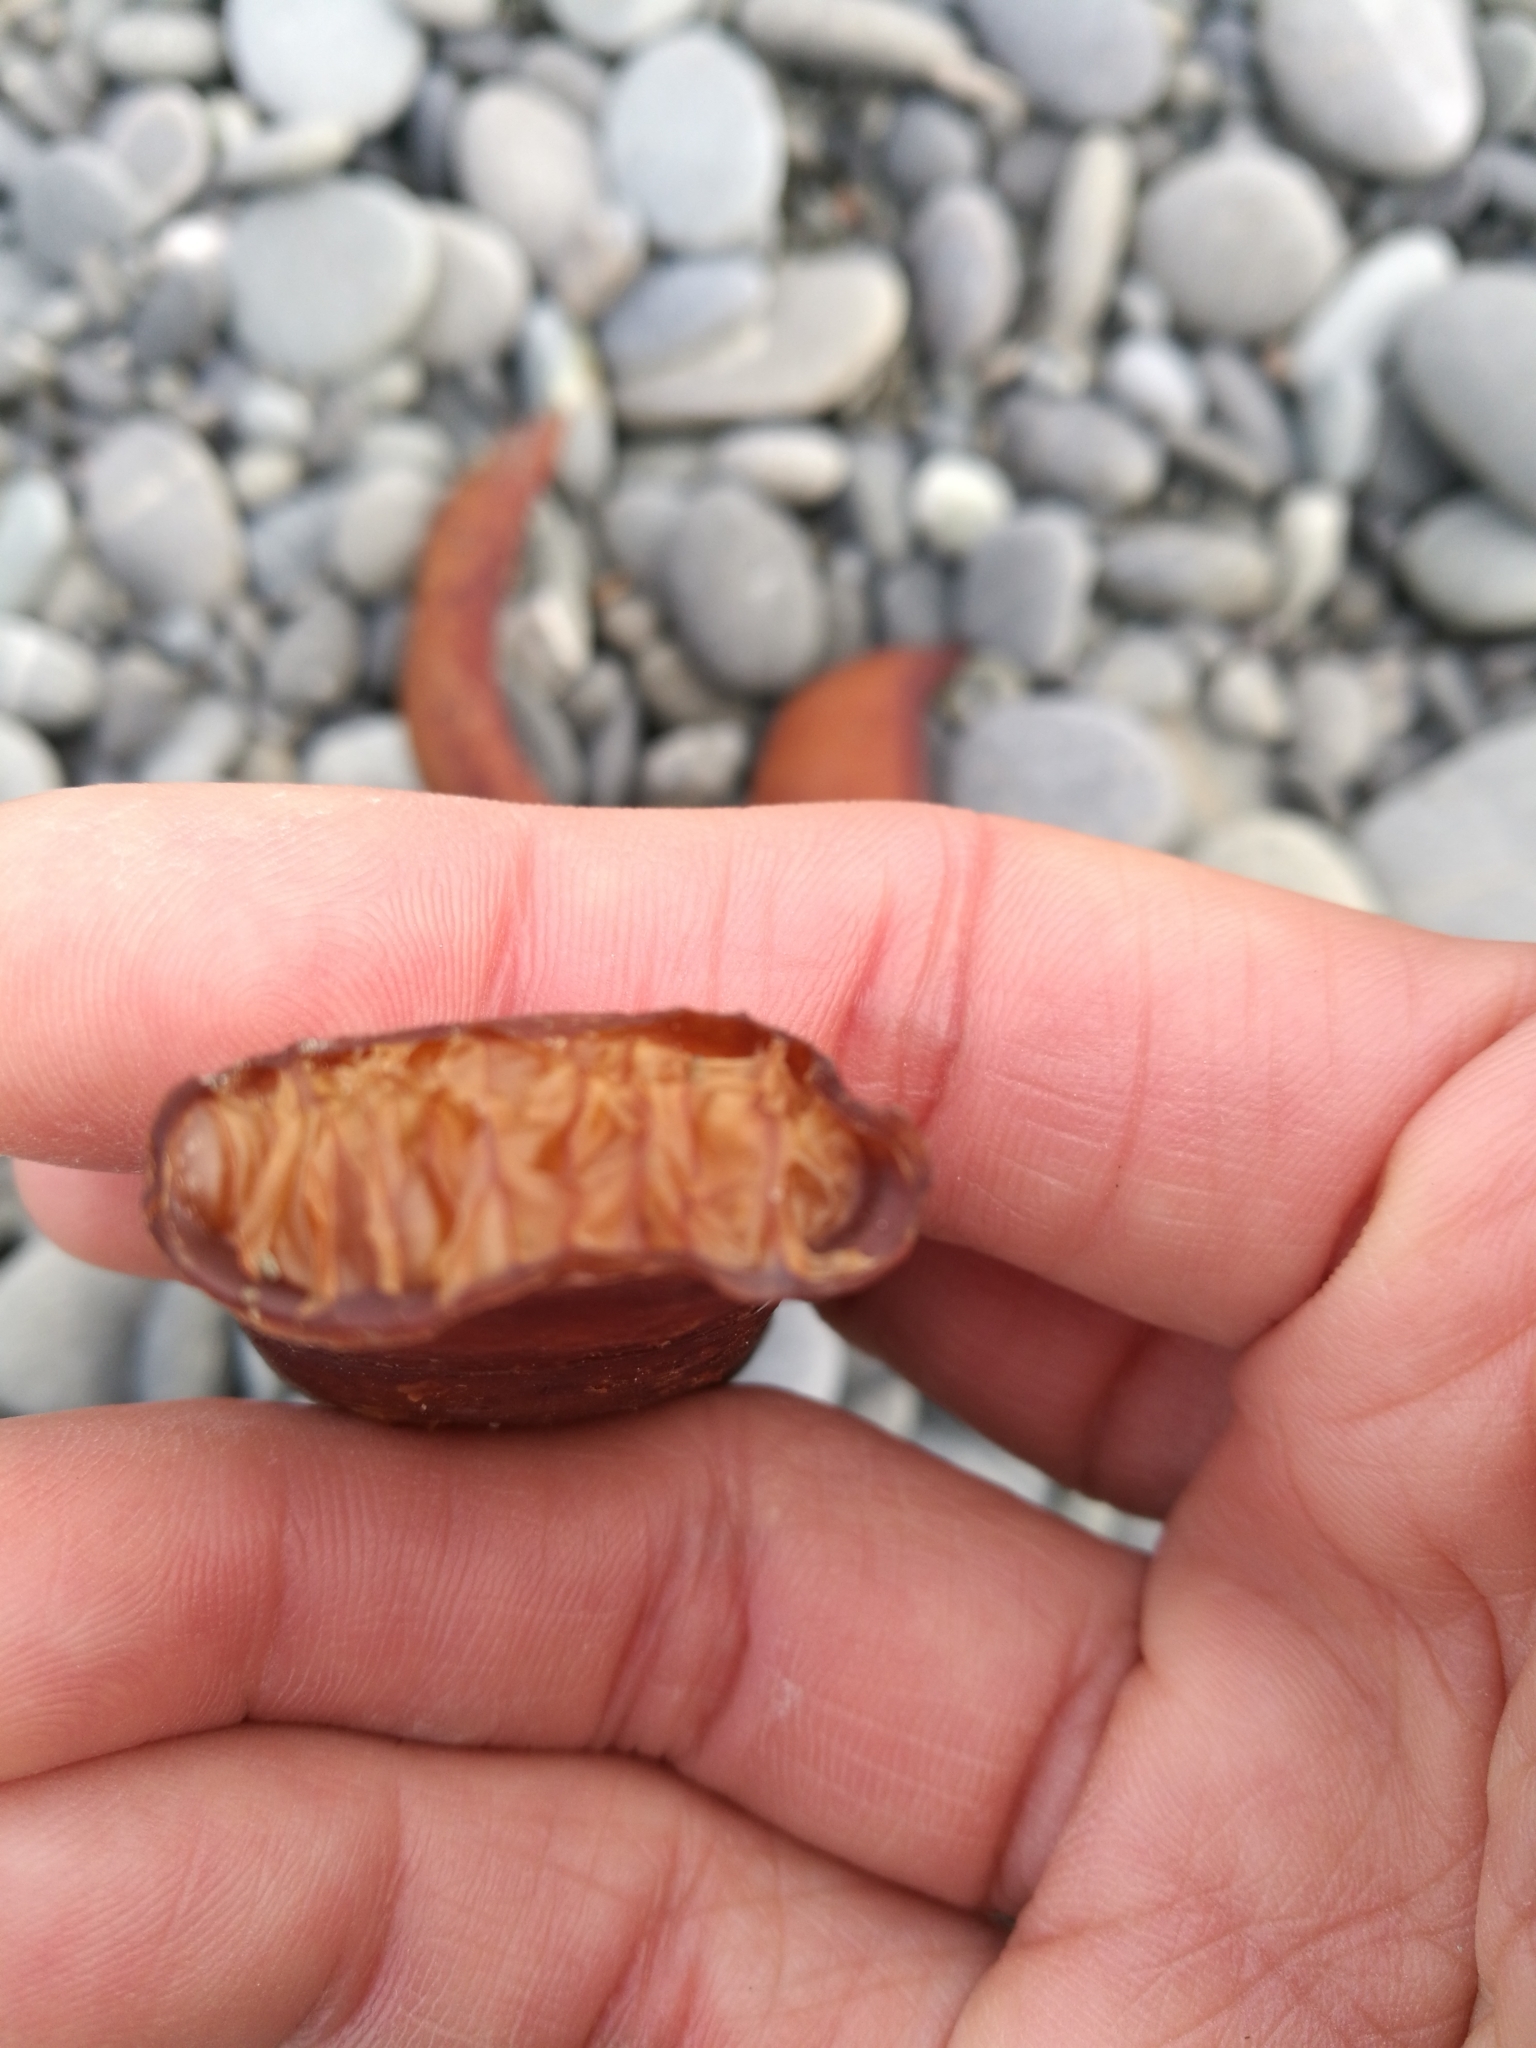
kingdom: Chromista
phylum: Ochrophyta
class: Phaeophyceae
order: Fucales
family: Durvillaeaceae
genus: Durvillaea
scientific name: Durvillaea antarctica
